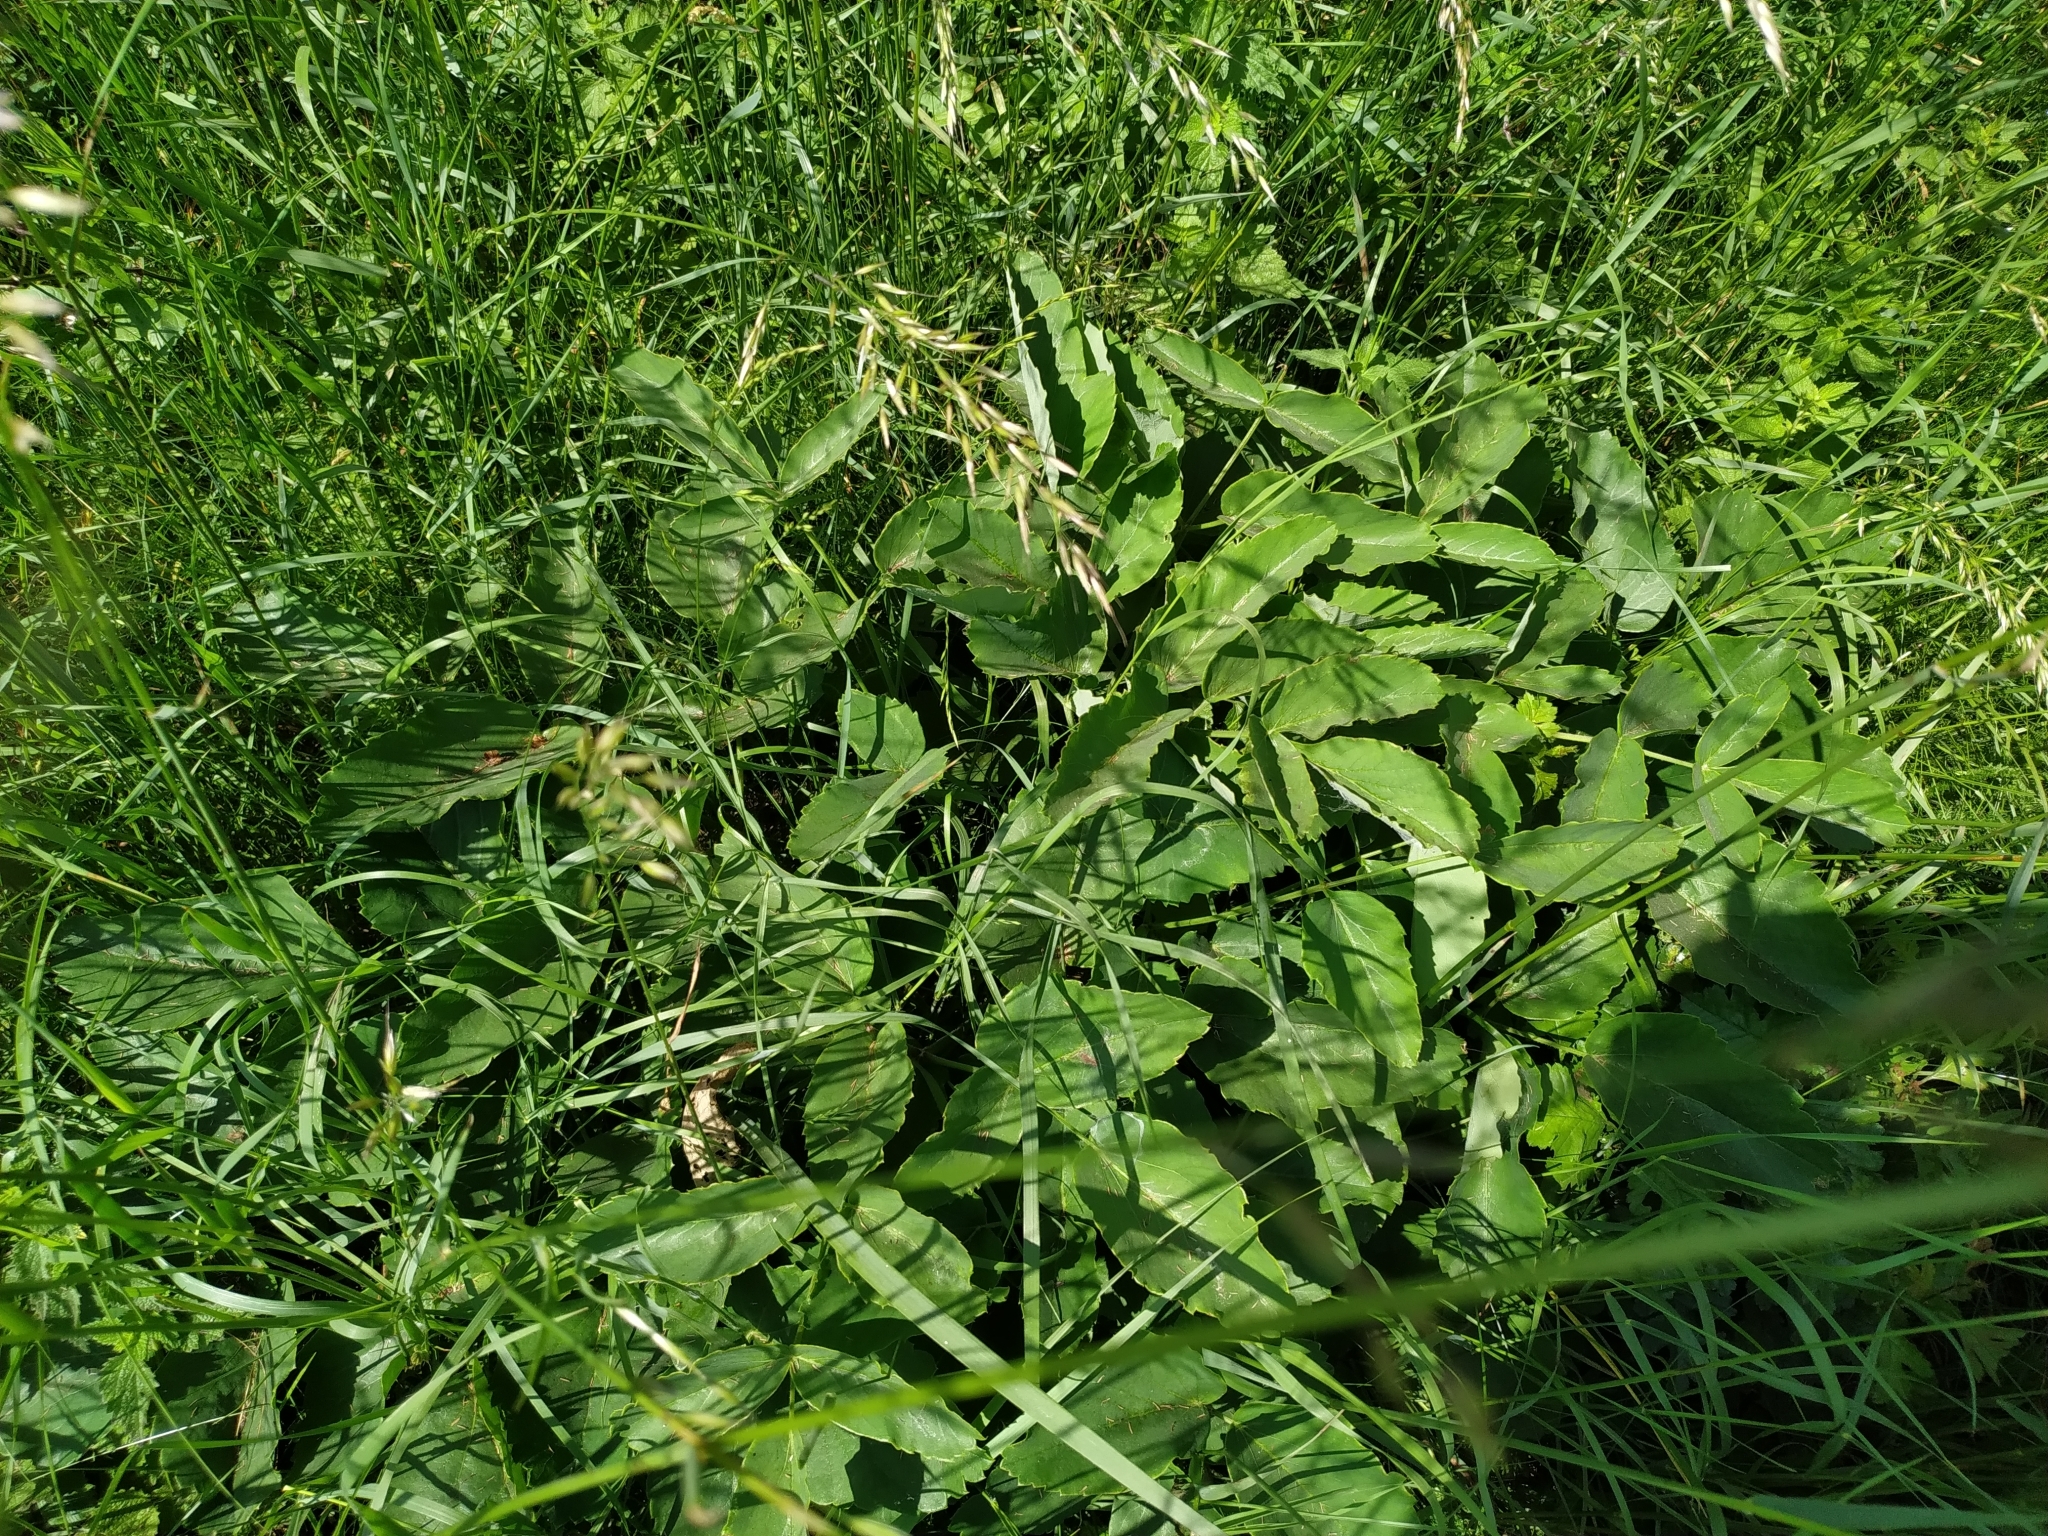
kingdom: Plantae
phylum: Tracheophyta
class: Magnoliopsida
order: Apiales
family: Apiaceae
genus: Laserpitium
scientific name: Laserpitium latifolium
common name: Broadleaf sermountain
